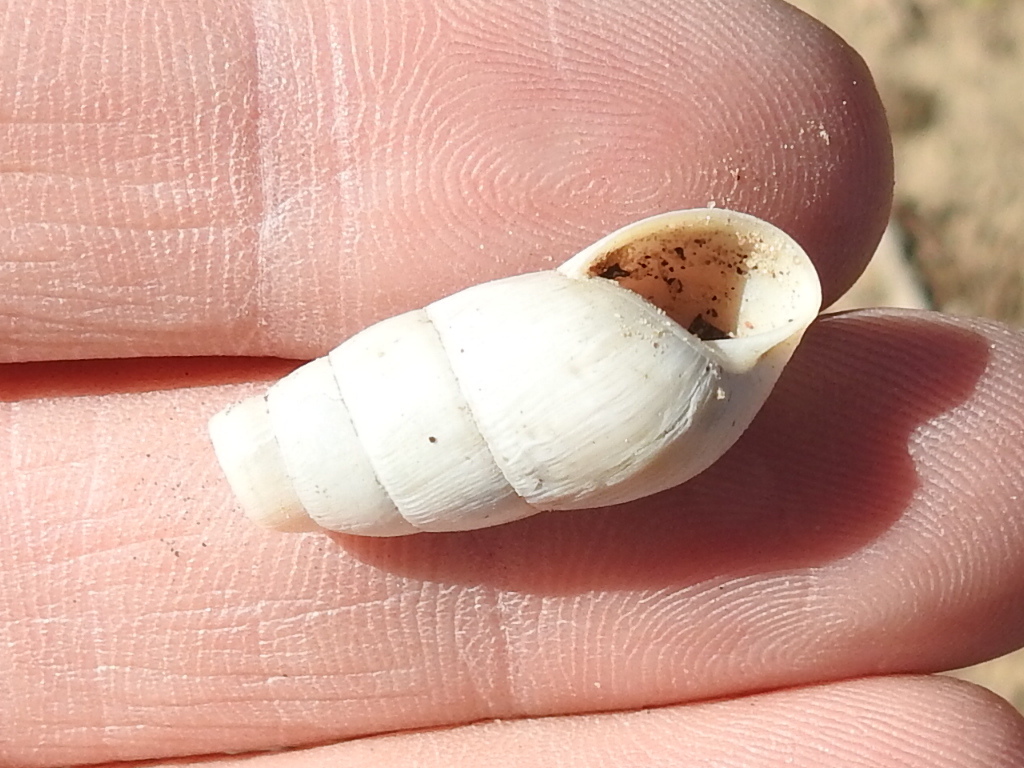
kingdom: Animalia
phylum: Mollusca
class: Gastropoda
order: Stylommatophora
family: Achatinidae
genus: Rumina
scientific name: Rumina decollata
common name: Decollate snail
